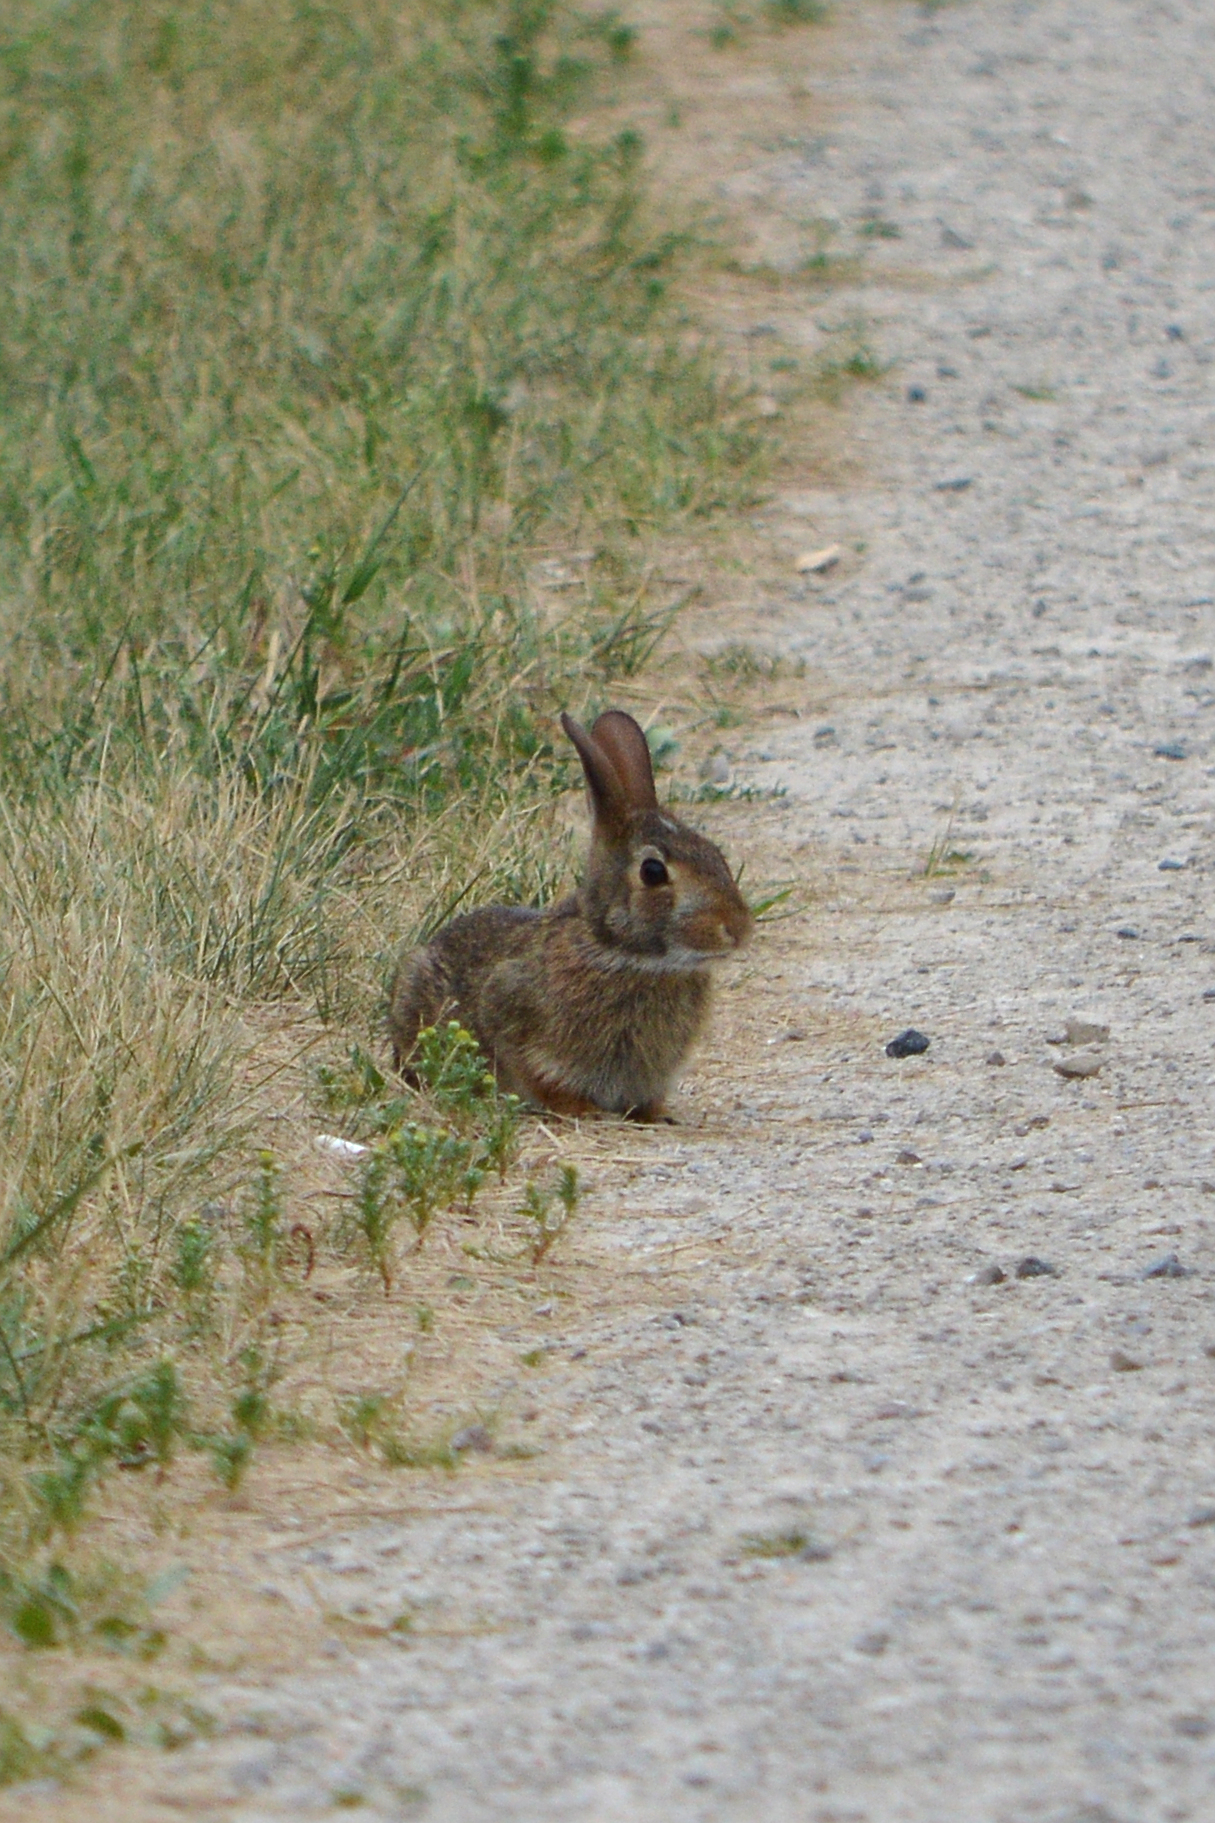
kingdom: Animalia
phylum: Chordata
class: Mammalia
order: Lagomorpha
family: Leporidae
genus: Sylvilagus
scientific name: Sylvilagus floridanus
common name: Eastern cottontail
